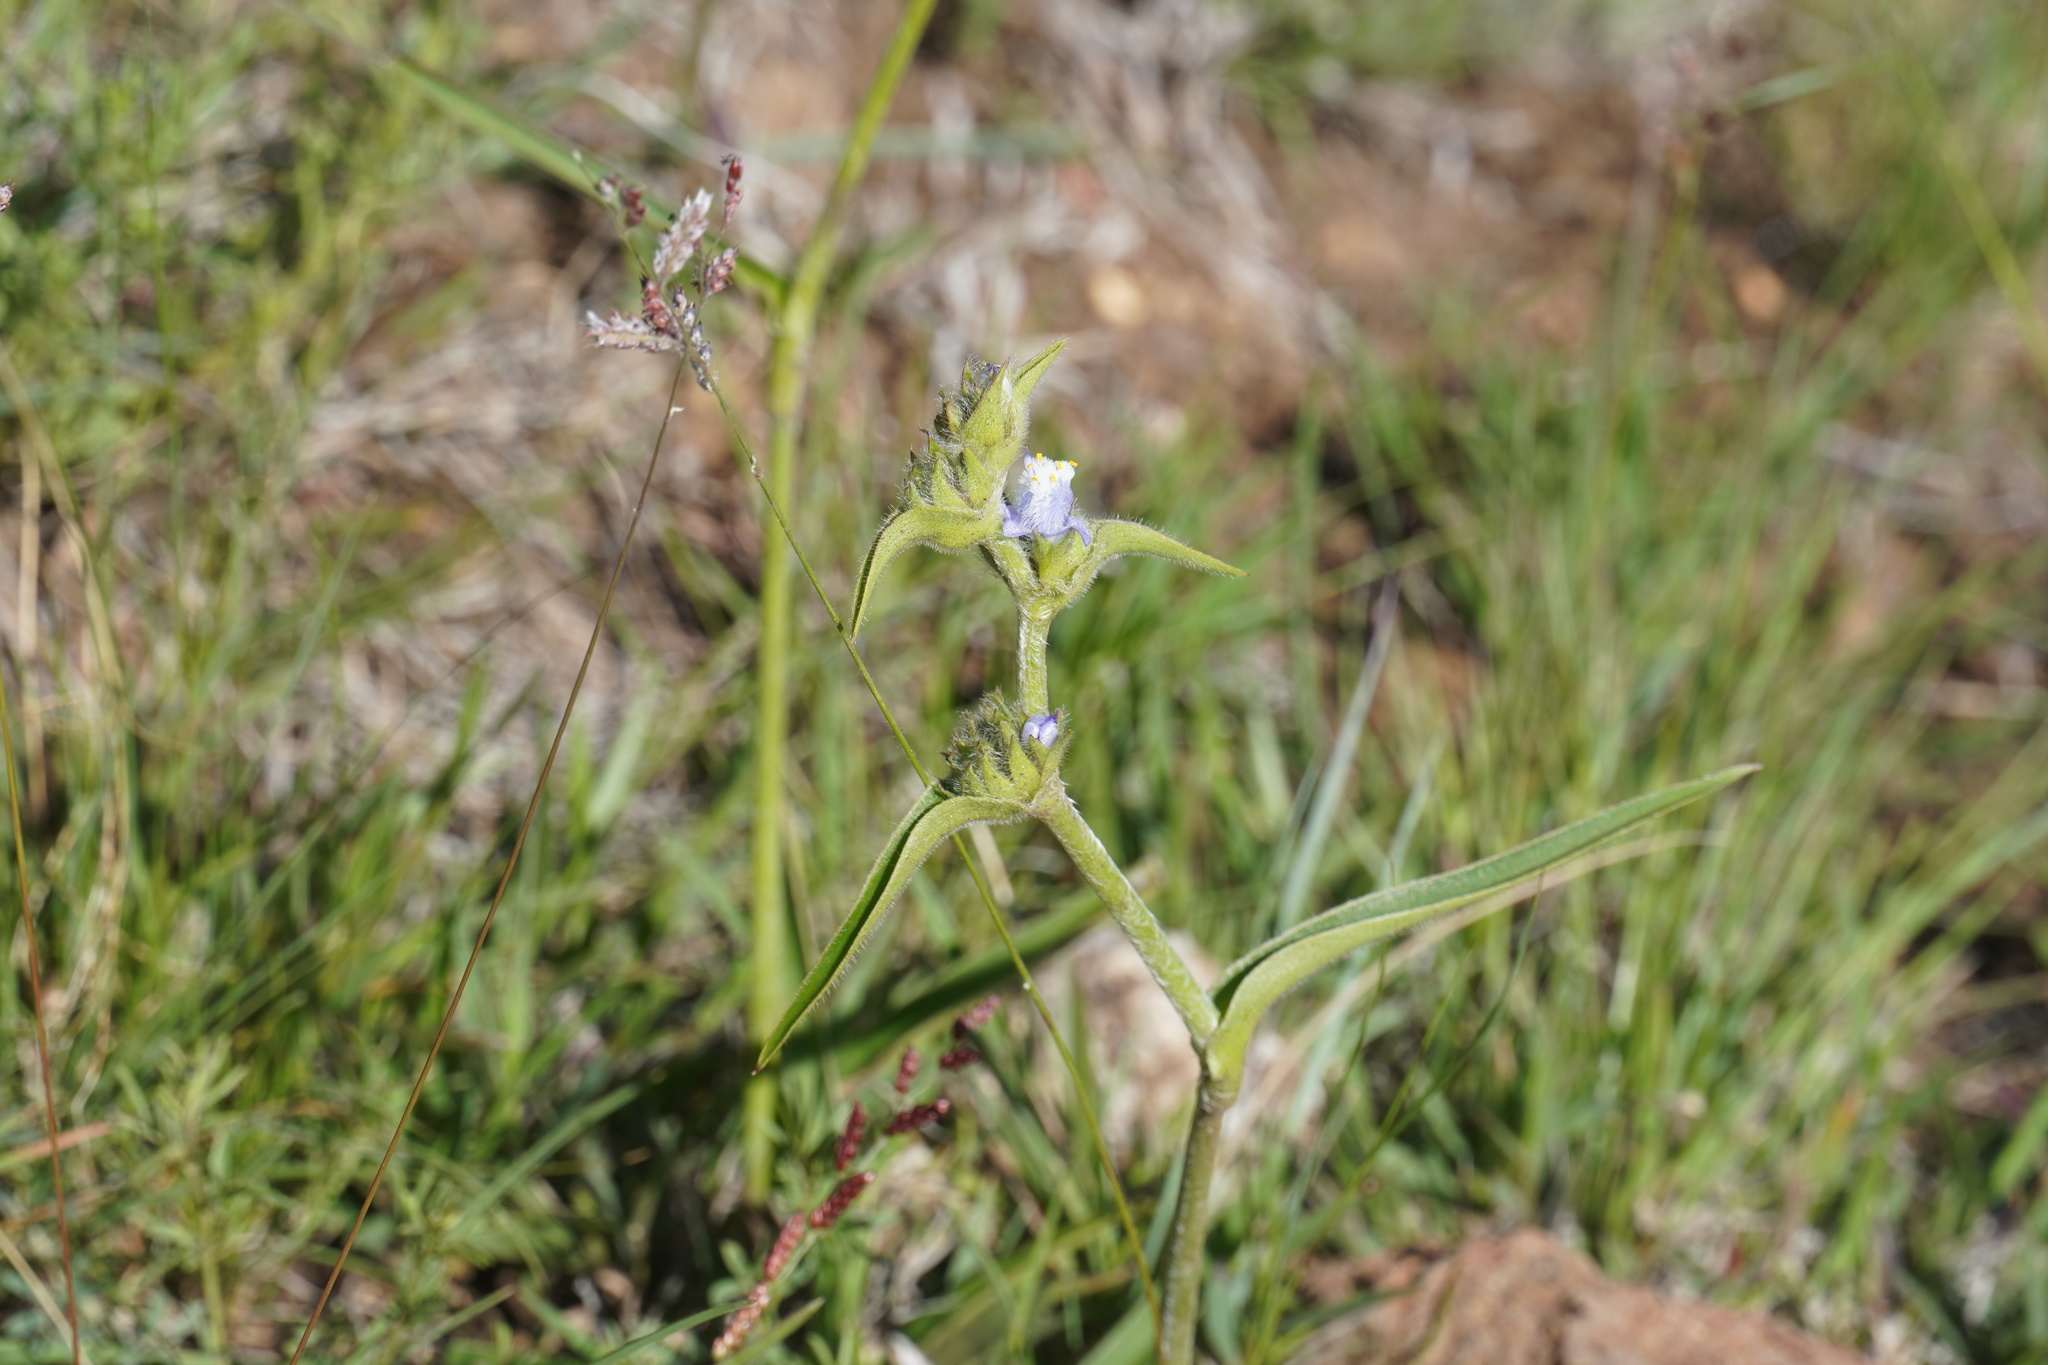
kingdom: Plantae
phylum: Tracheophyta
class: Liliopsida
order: Commelinales
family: Commelinaceae
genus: Cyanotis
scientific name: Cyanotis speciosa
